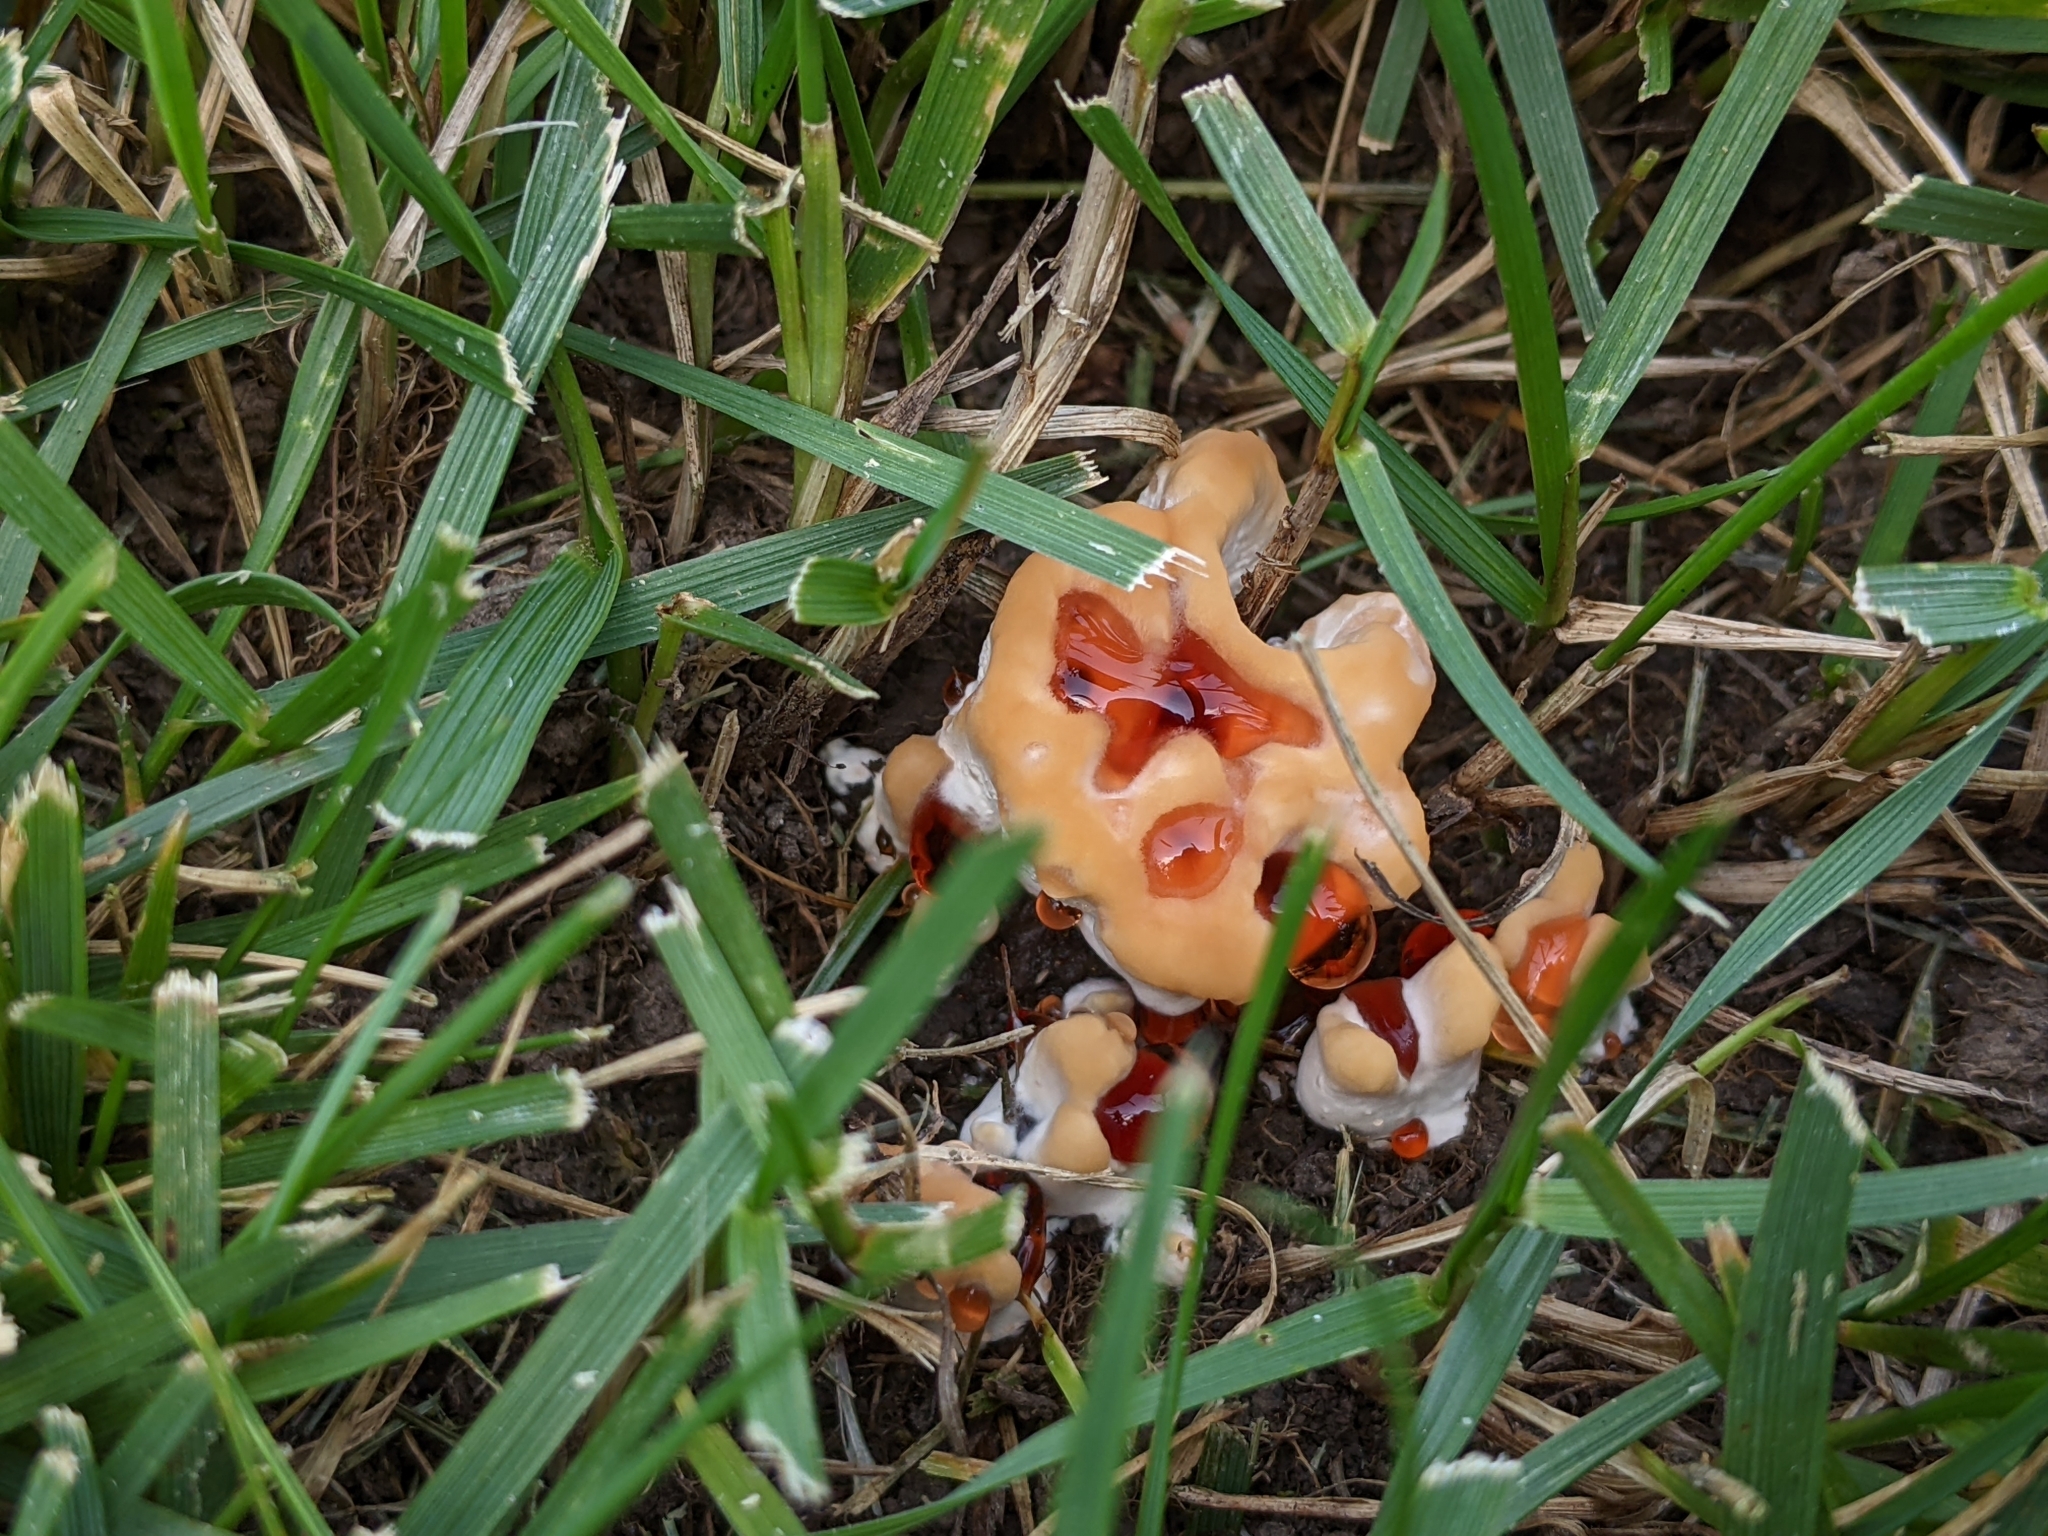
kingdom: Fungi
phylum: Basidiomycota
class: Agaricomycetes
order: Polyporales
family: Podoscyphaceae
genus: Abortiporus
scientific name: Abortiporus biennis
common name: Blushing rosette
